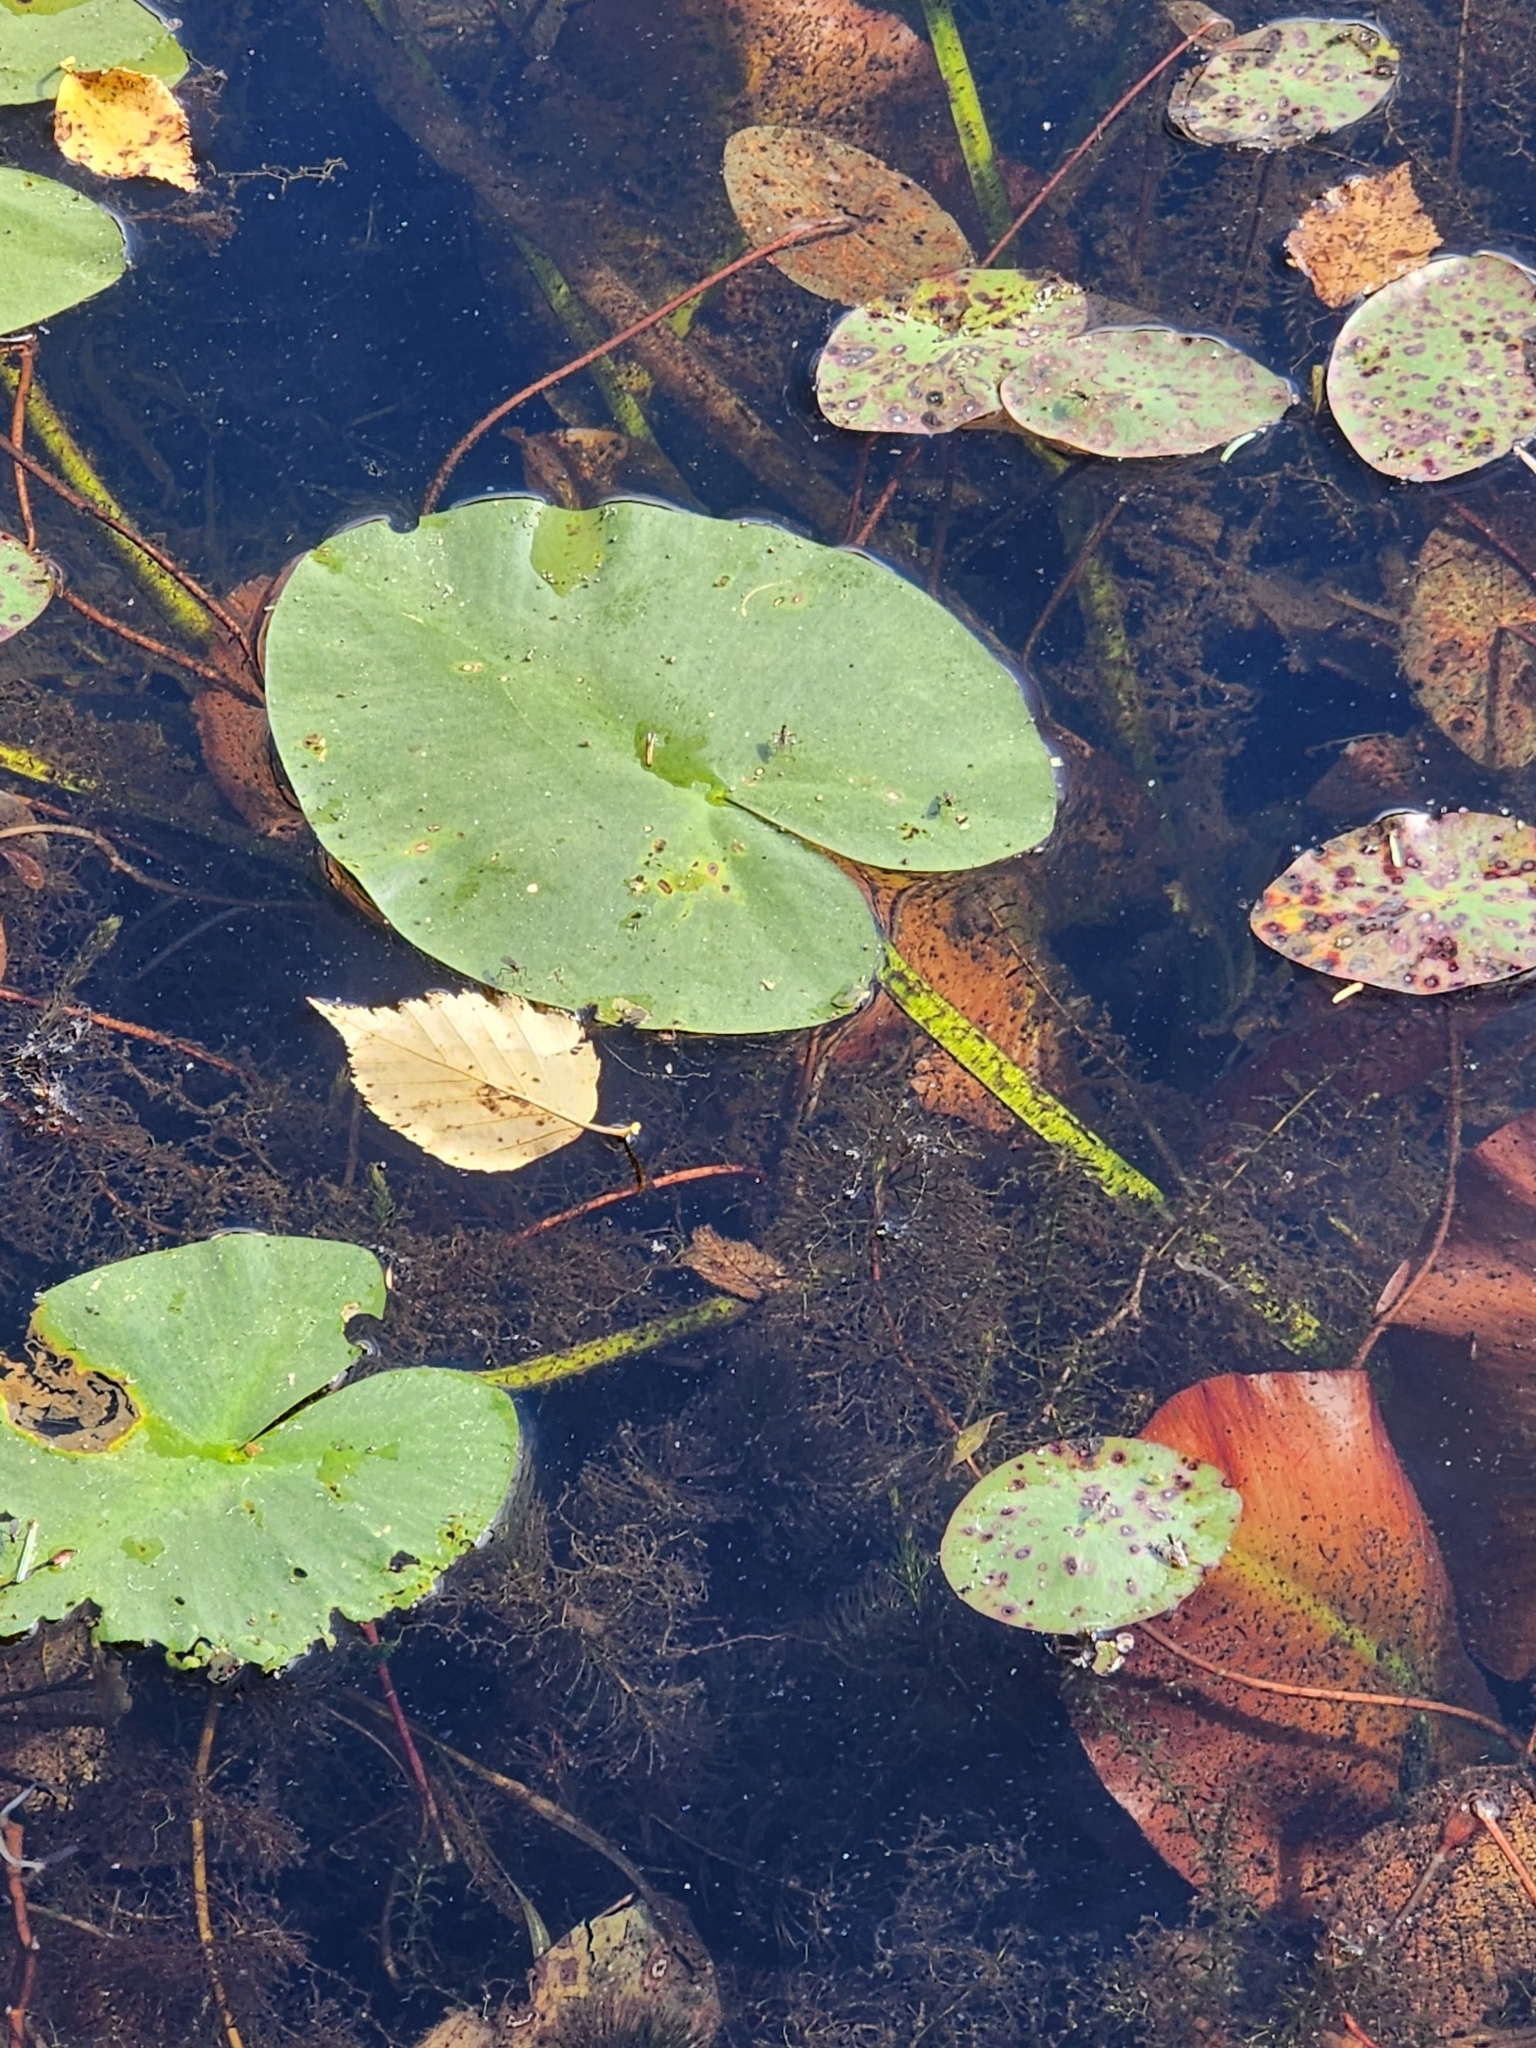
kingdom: Plantae
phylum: Tracheophyta
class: Magnoliopsida
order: Nymphaeales
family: Nymphaeaceae
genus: Nuphar
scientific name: Nuphar variegata
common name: Beaver-root
